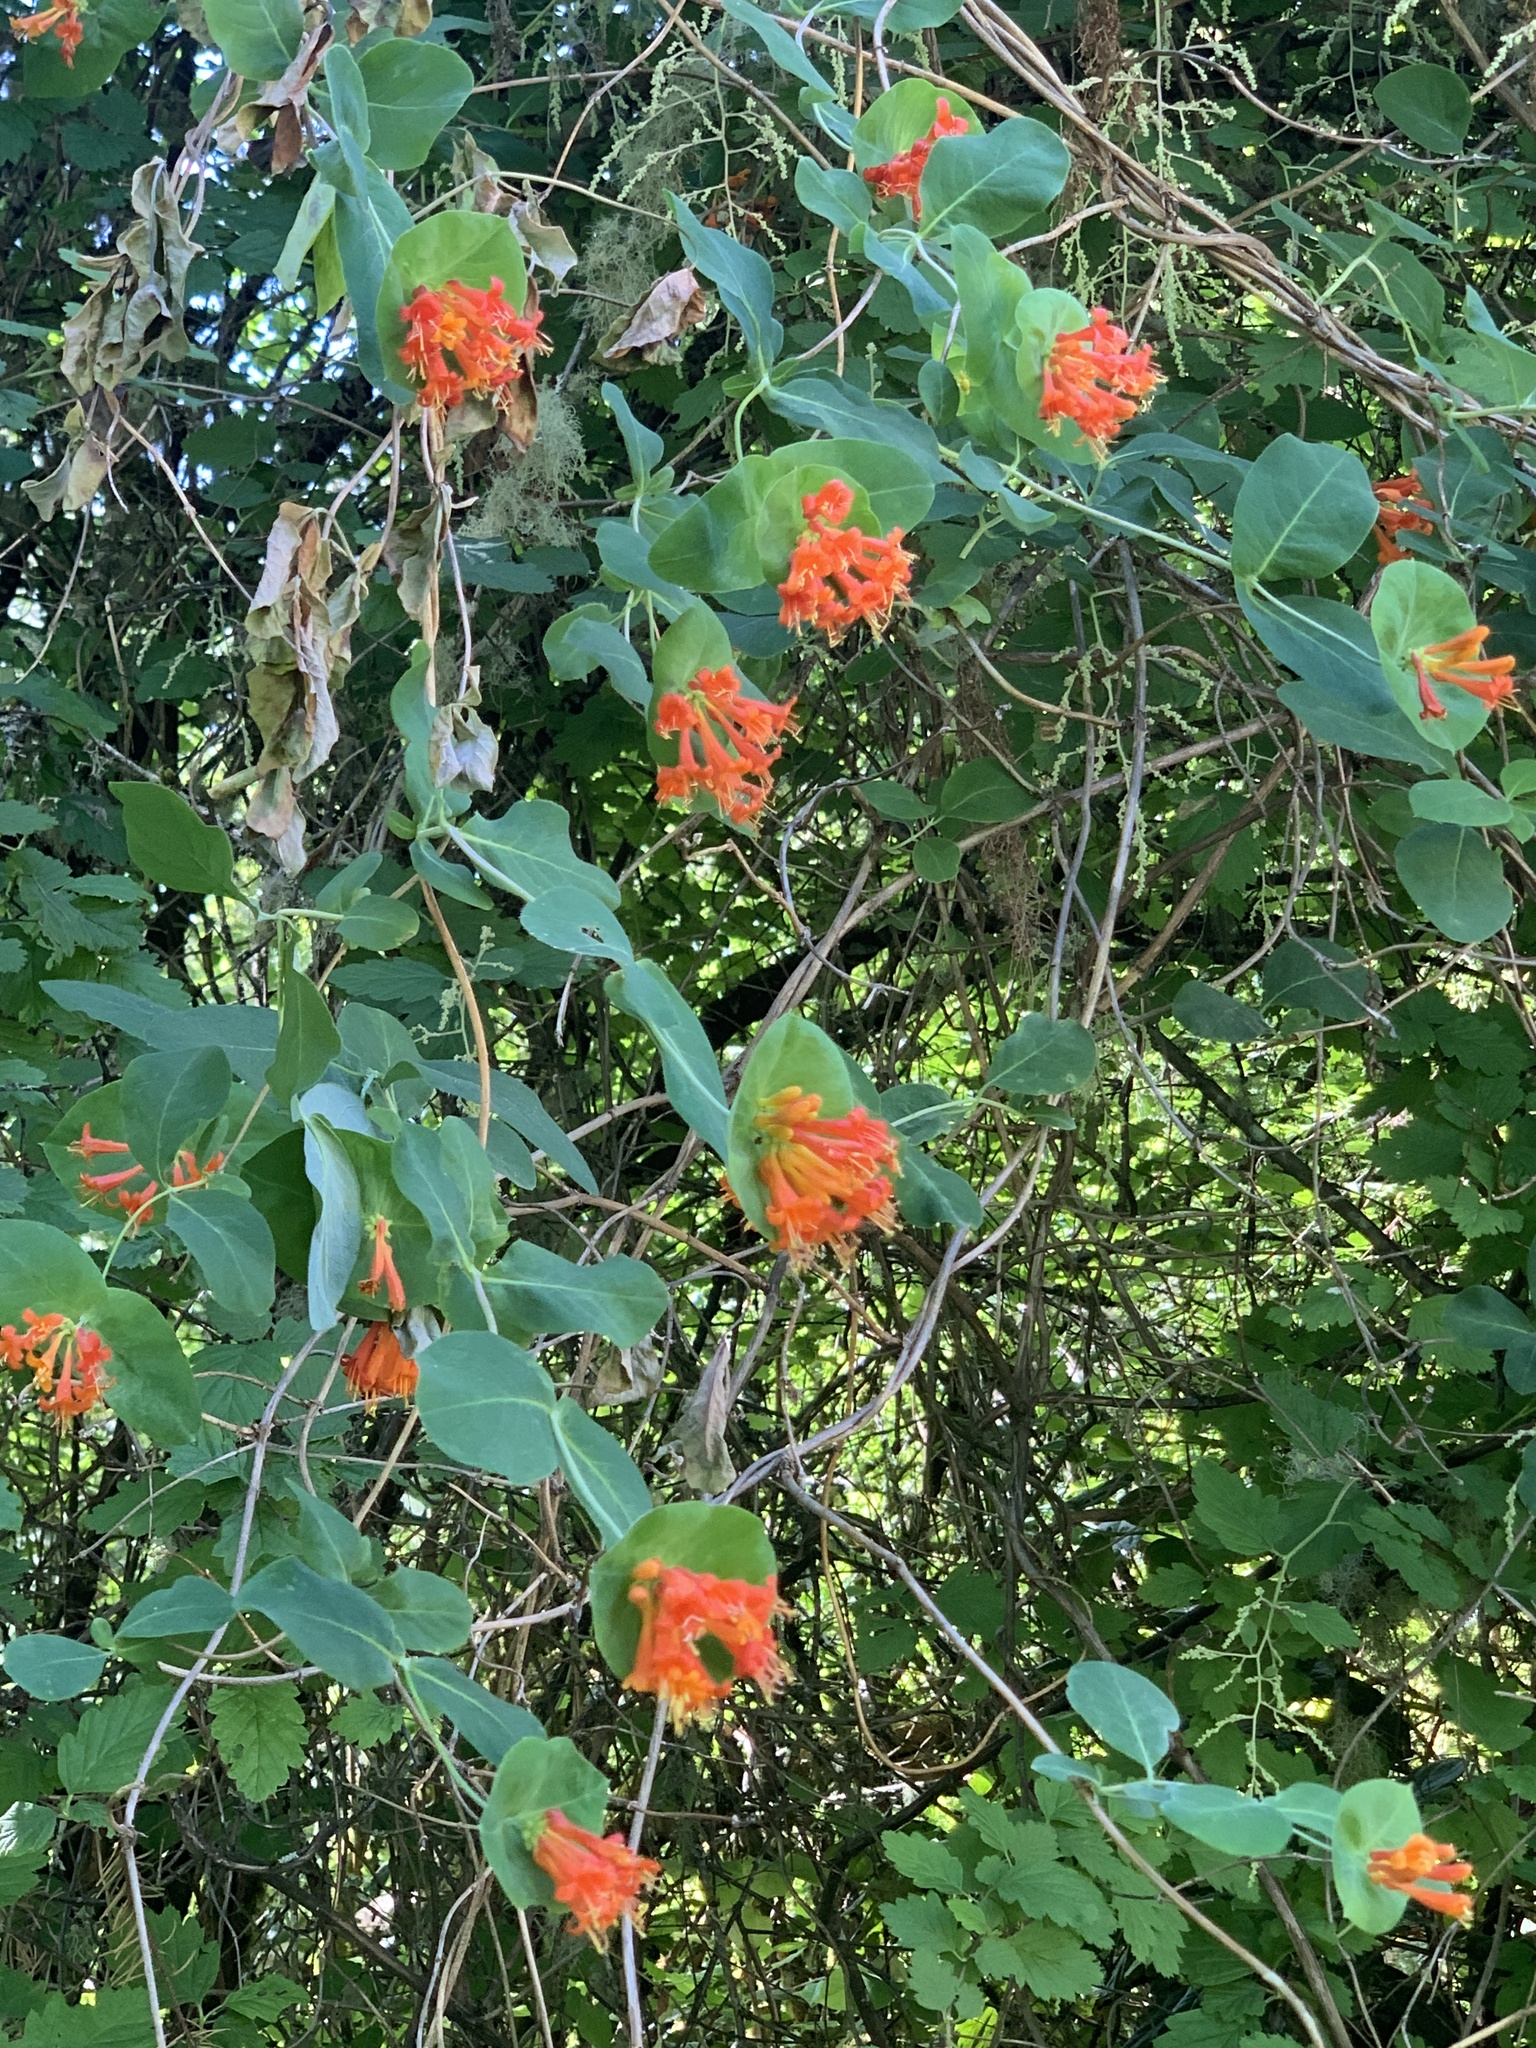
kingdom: Plantae
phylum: Tracheophyta
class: Magnoliopsida
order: Dipsacales
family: Caprifoliaceae
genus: Lonicera
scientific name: Lonicera ciliosa
